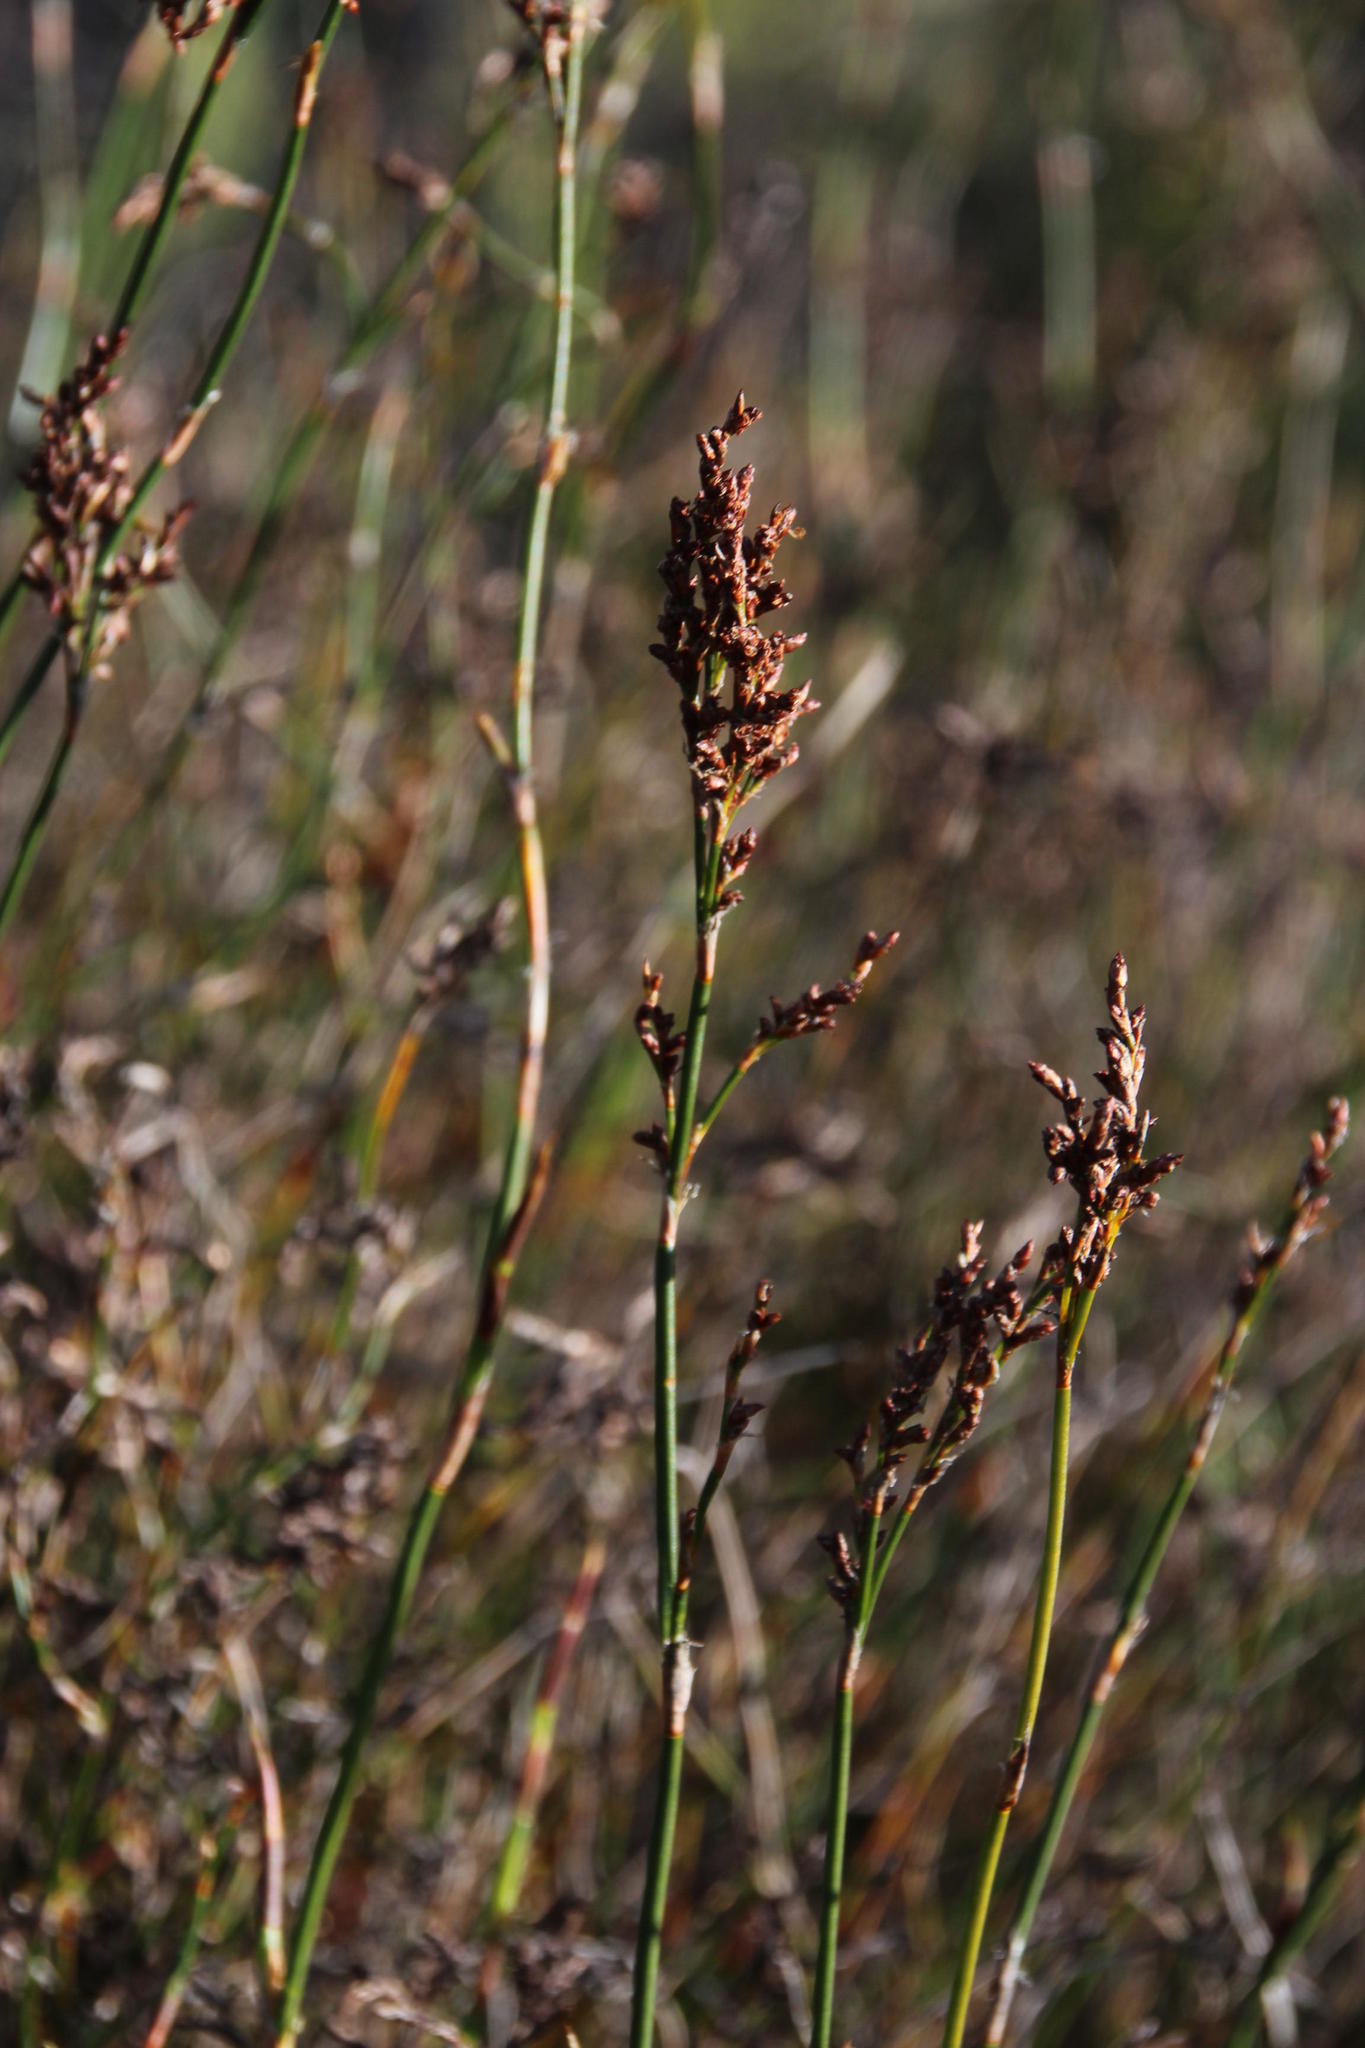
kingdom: Plantae
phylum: Tracheophyta
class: Liliopsida
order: Poales
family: Restionaceae
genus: Restio
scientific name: Restio gaudichaudianus
